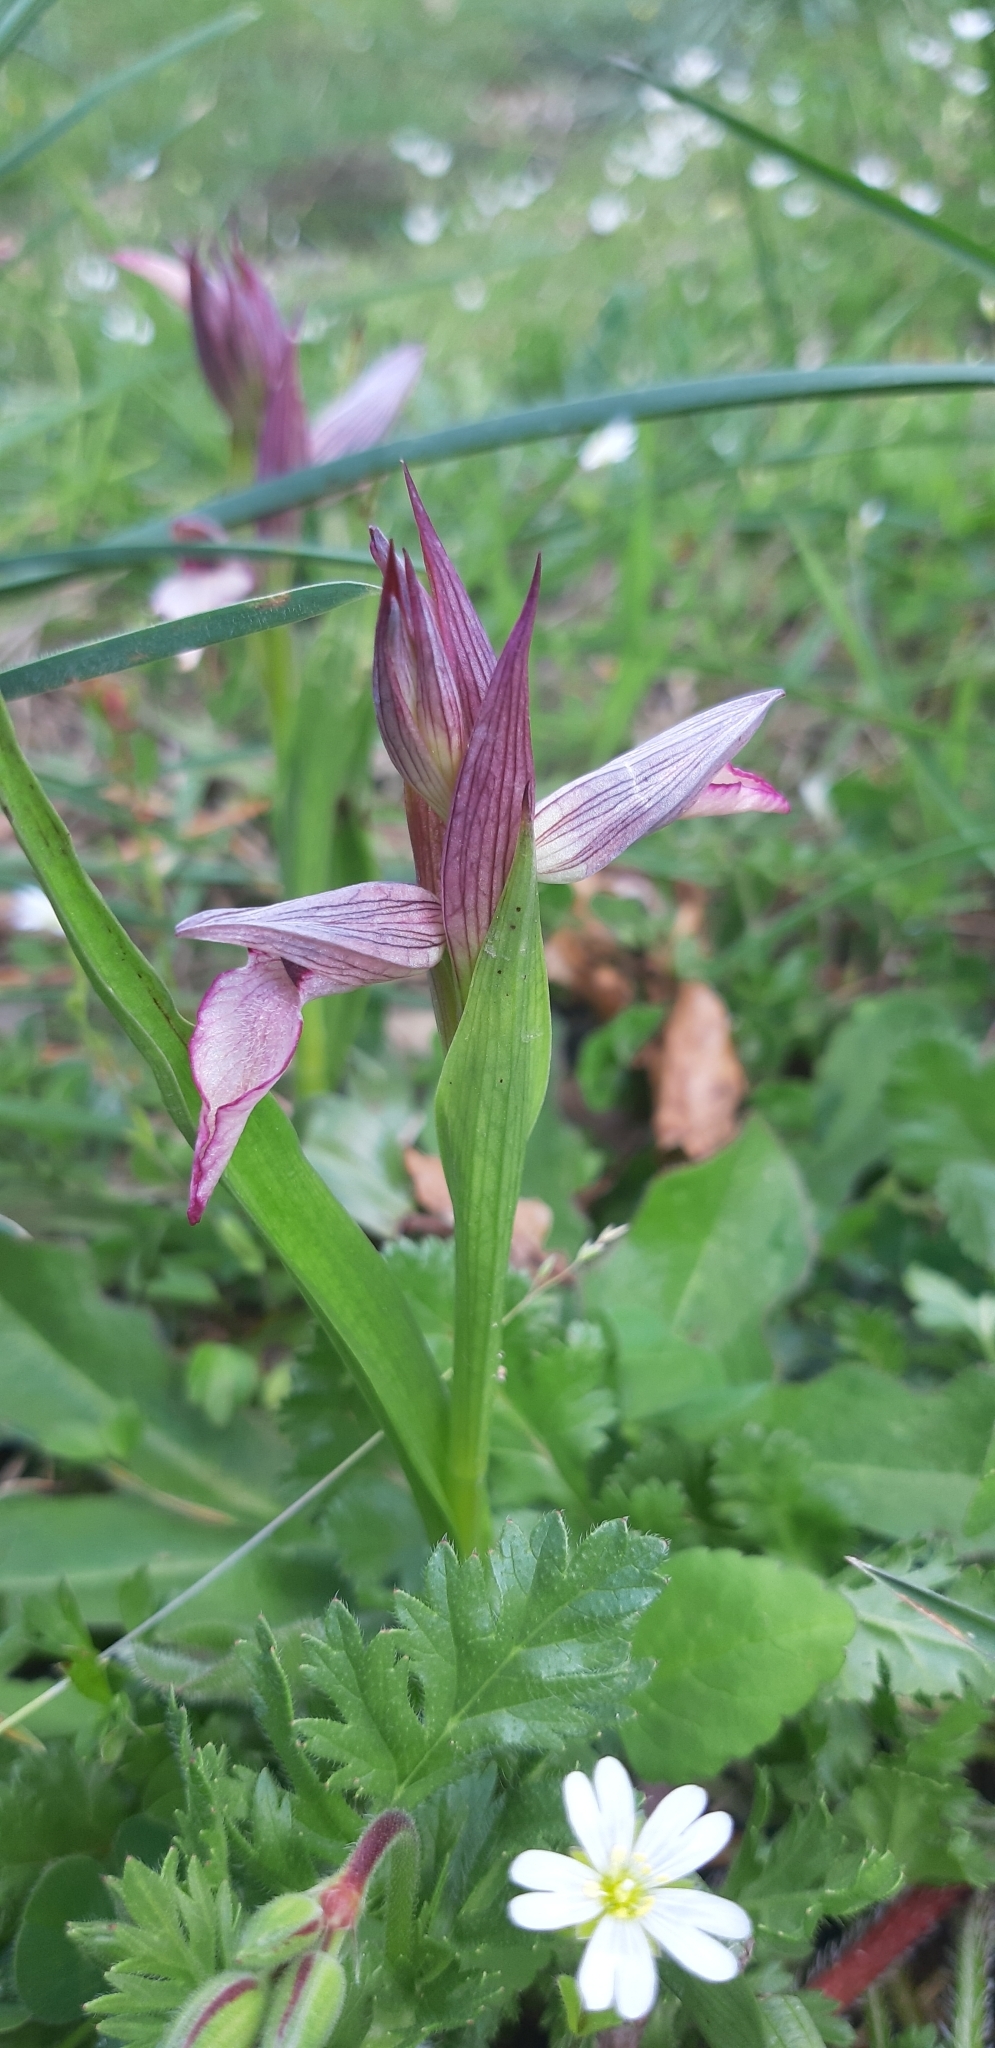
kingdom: Plantae
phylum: Tracheophyta
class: Liliopsida
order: Asparagales
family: Orchidaceae
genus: Serapias
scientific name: Serapias lingua
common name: Tongue-orchid
